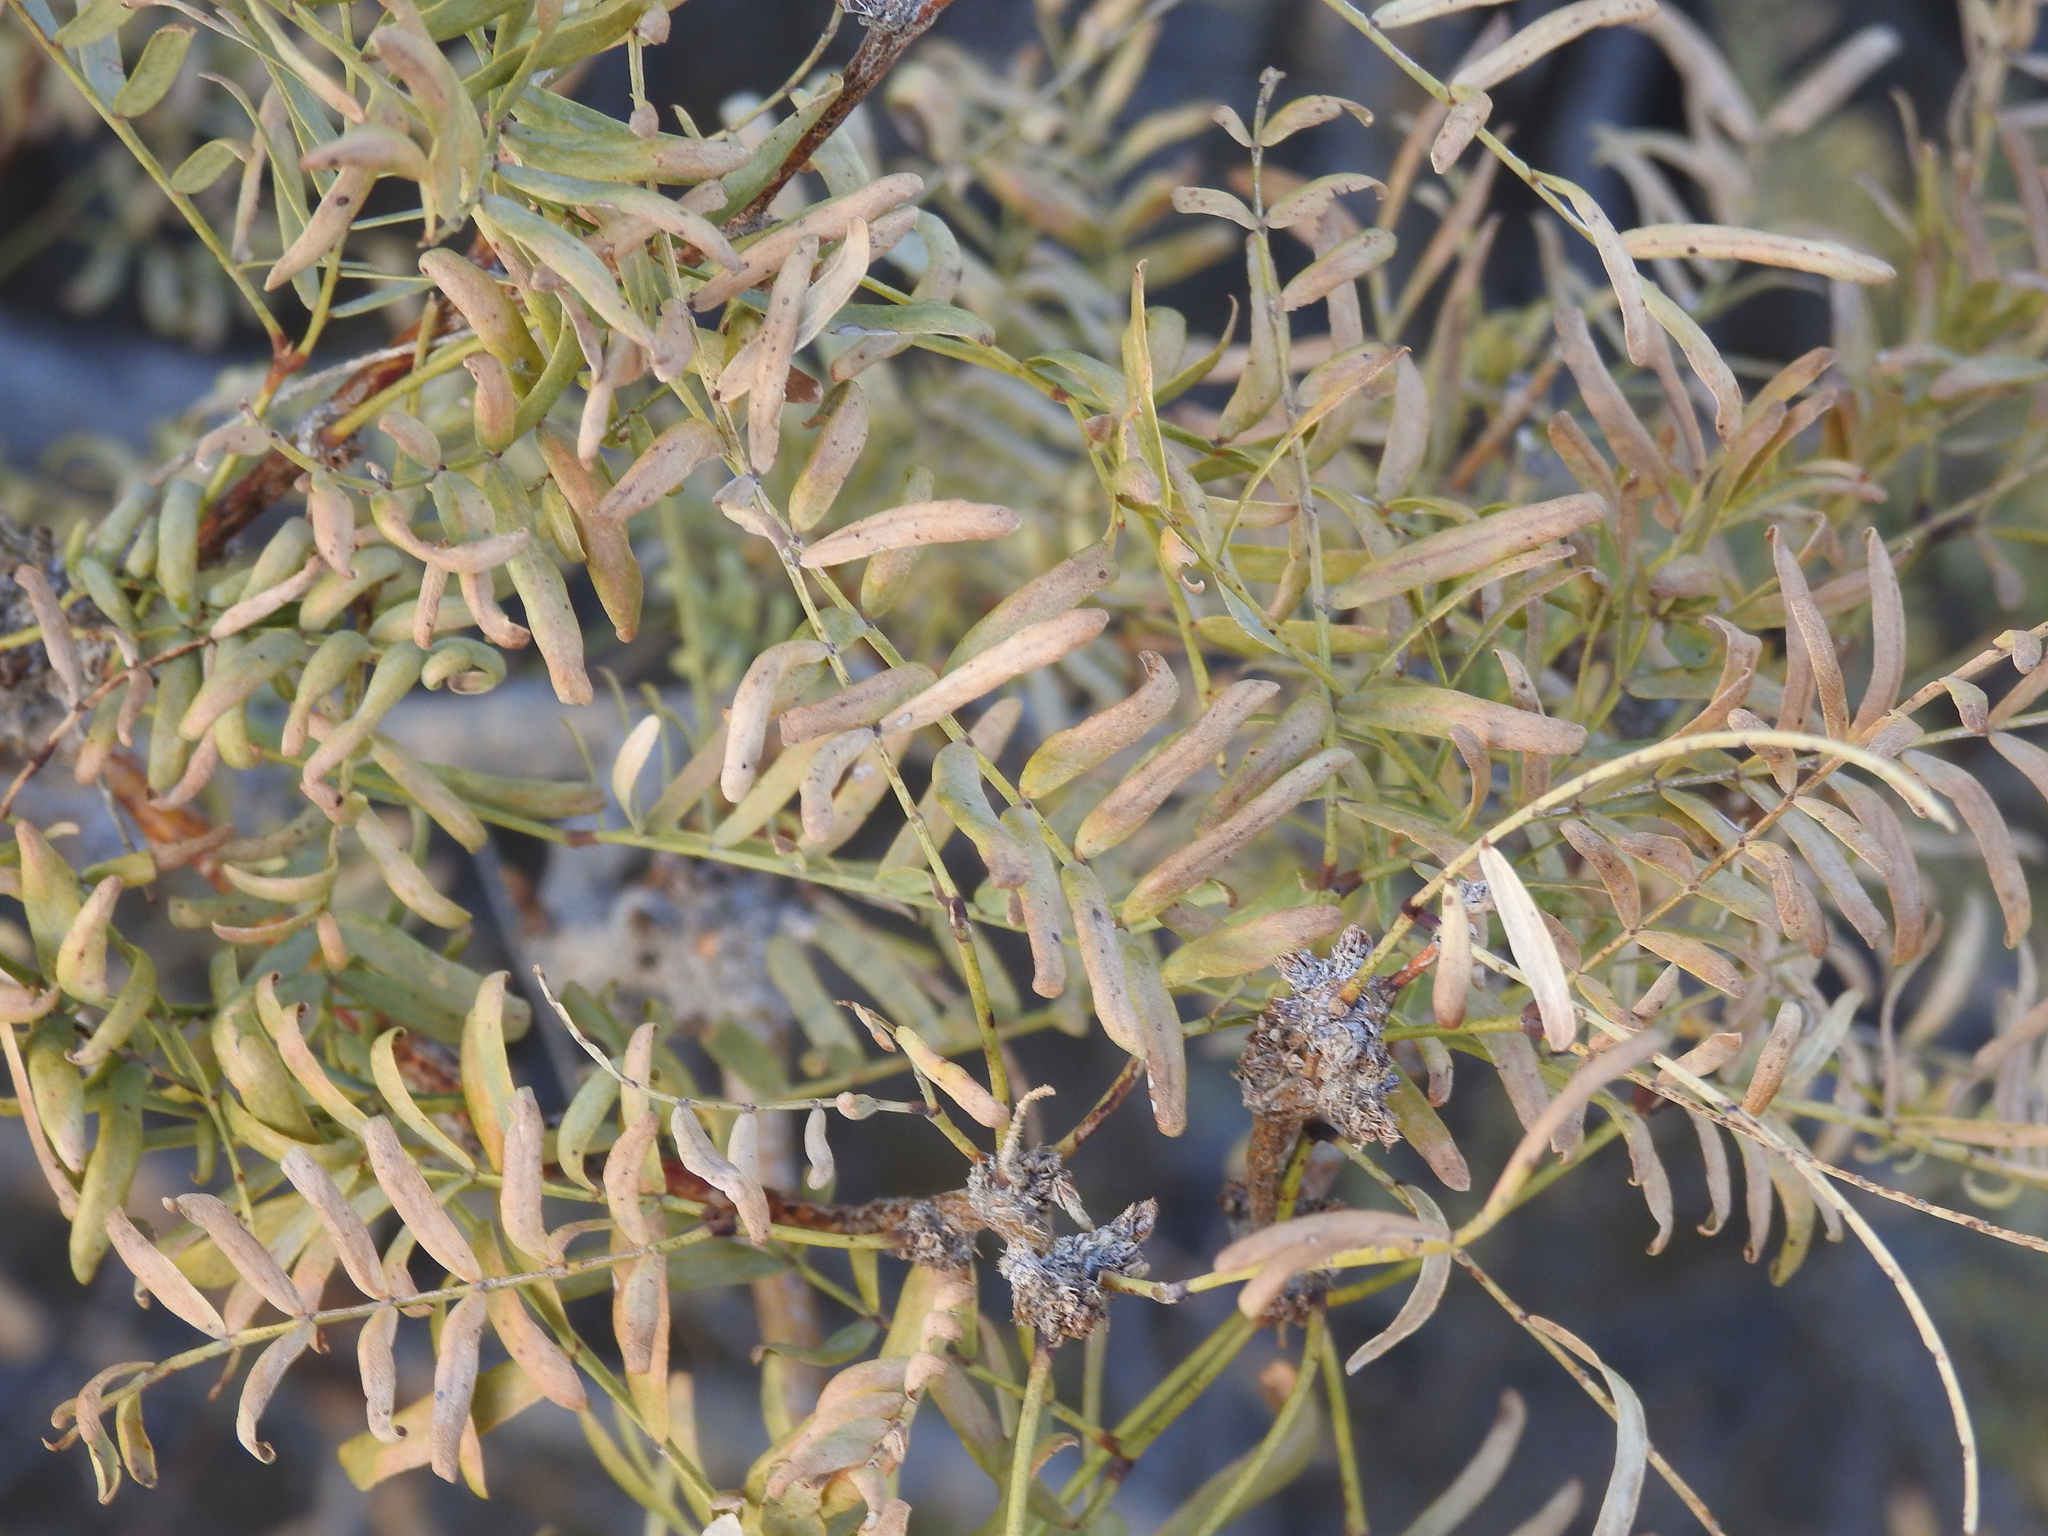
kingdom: Plantae
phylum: Tracheophyta
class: Magnoliopsida
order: Fabales
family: Fabaceae
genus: Prosopis
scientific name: Prosopis pubescens
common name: Screw-bean
